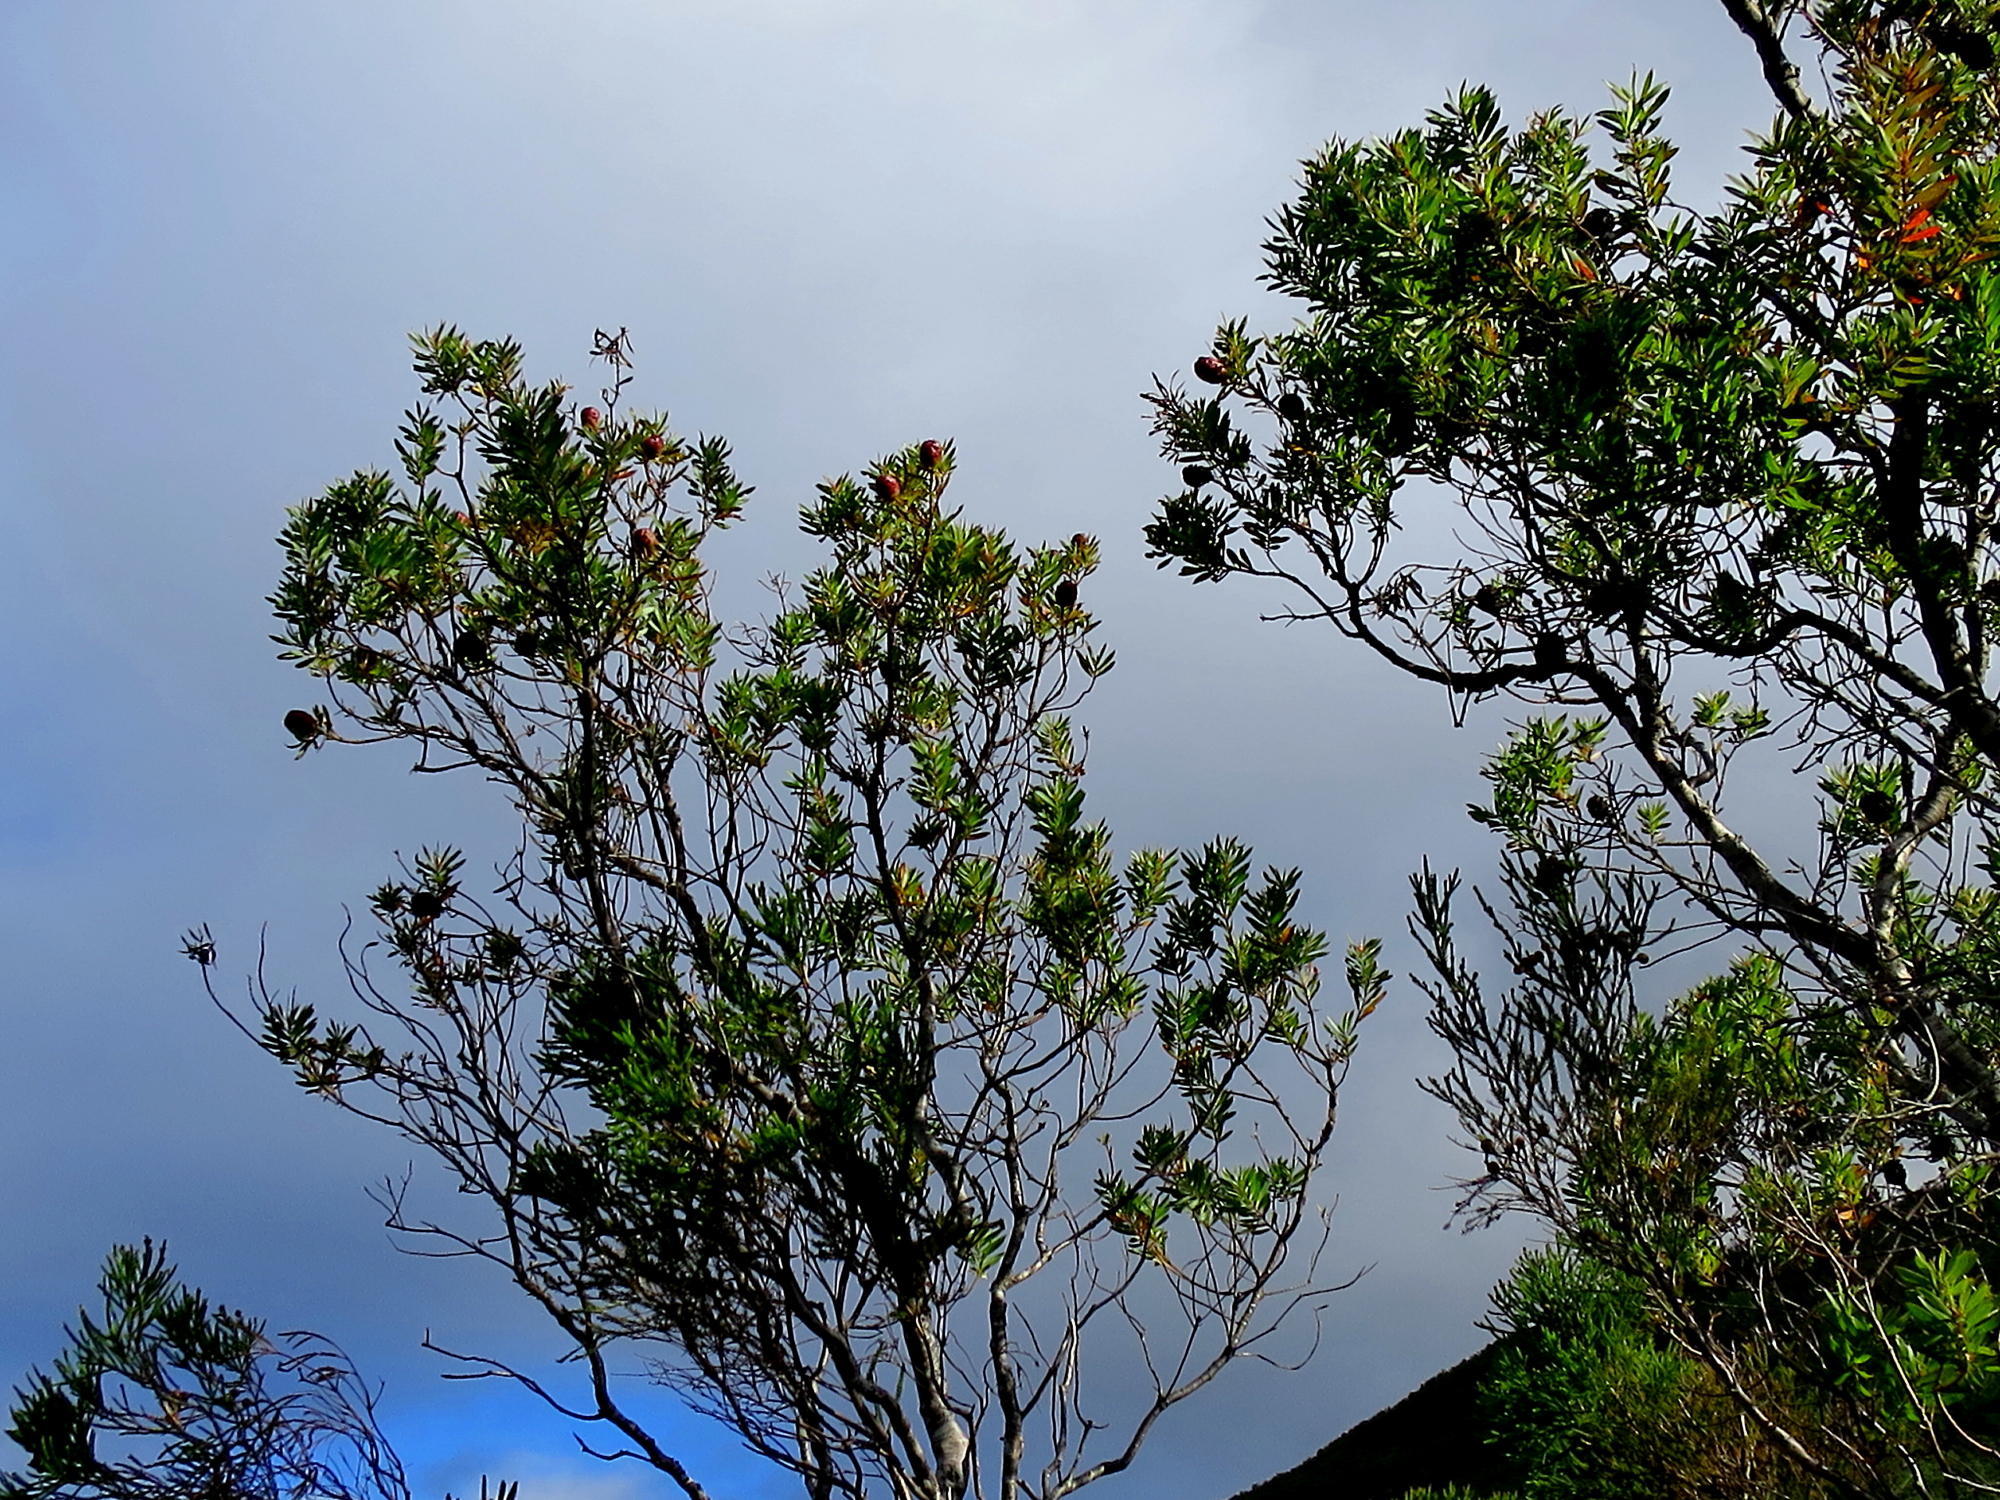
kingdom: Plantae
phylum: Tracheophyta
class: Magnoliopsida
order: Proteales
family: Proteaceae
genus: Leucadendron
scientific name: Leucadendron conicum
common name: Garden route conebush
